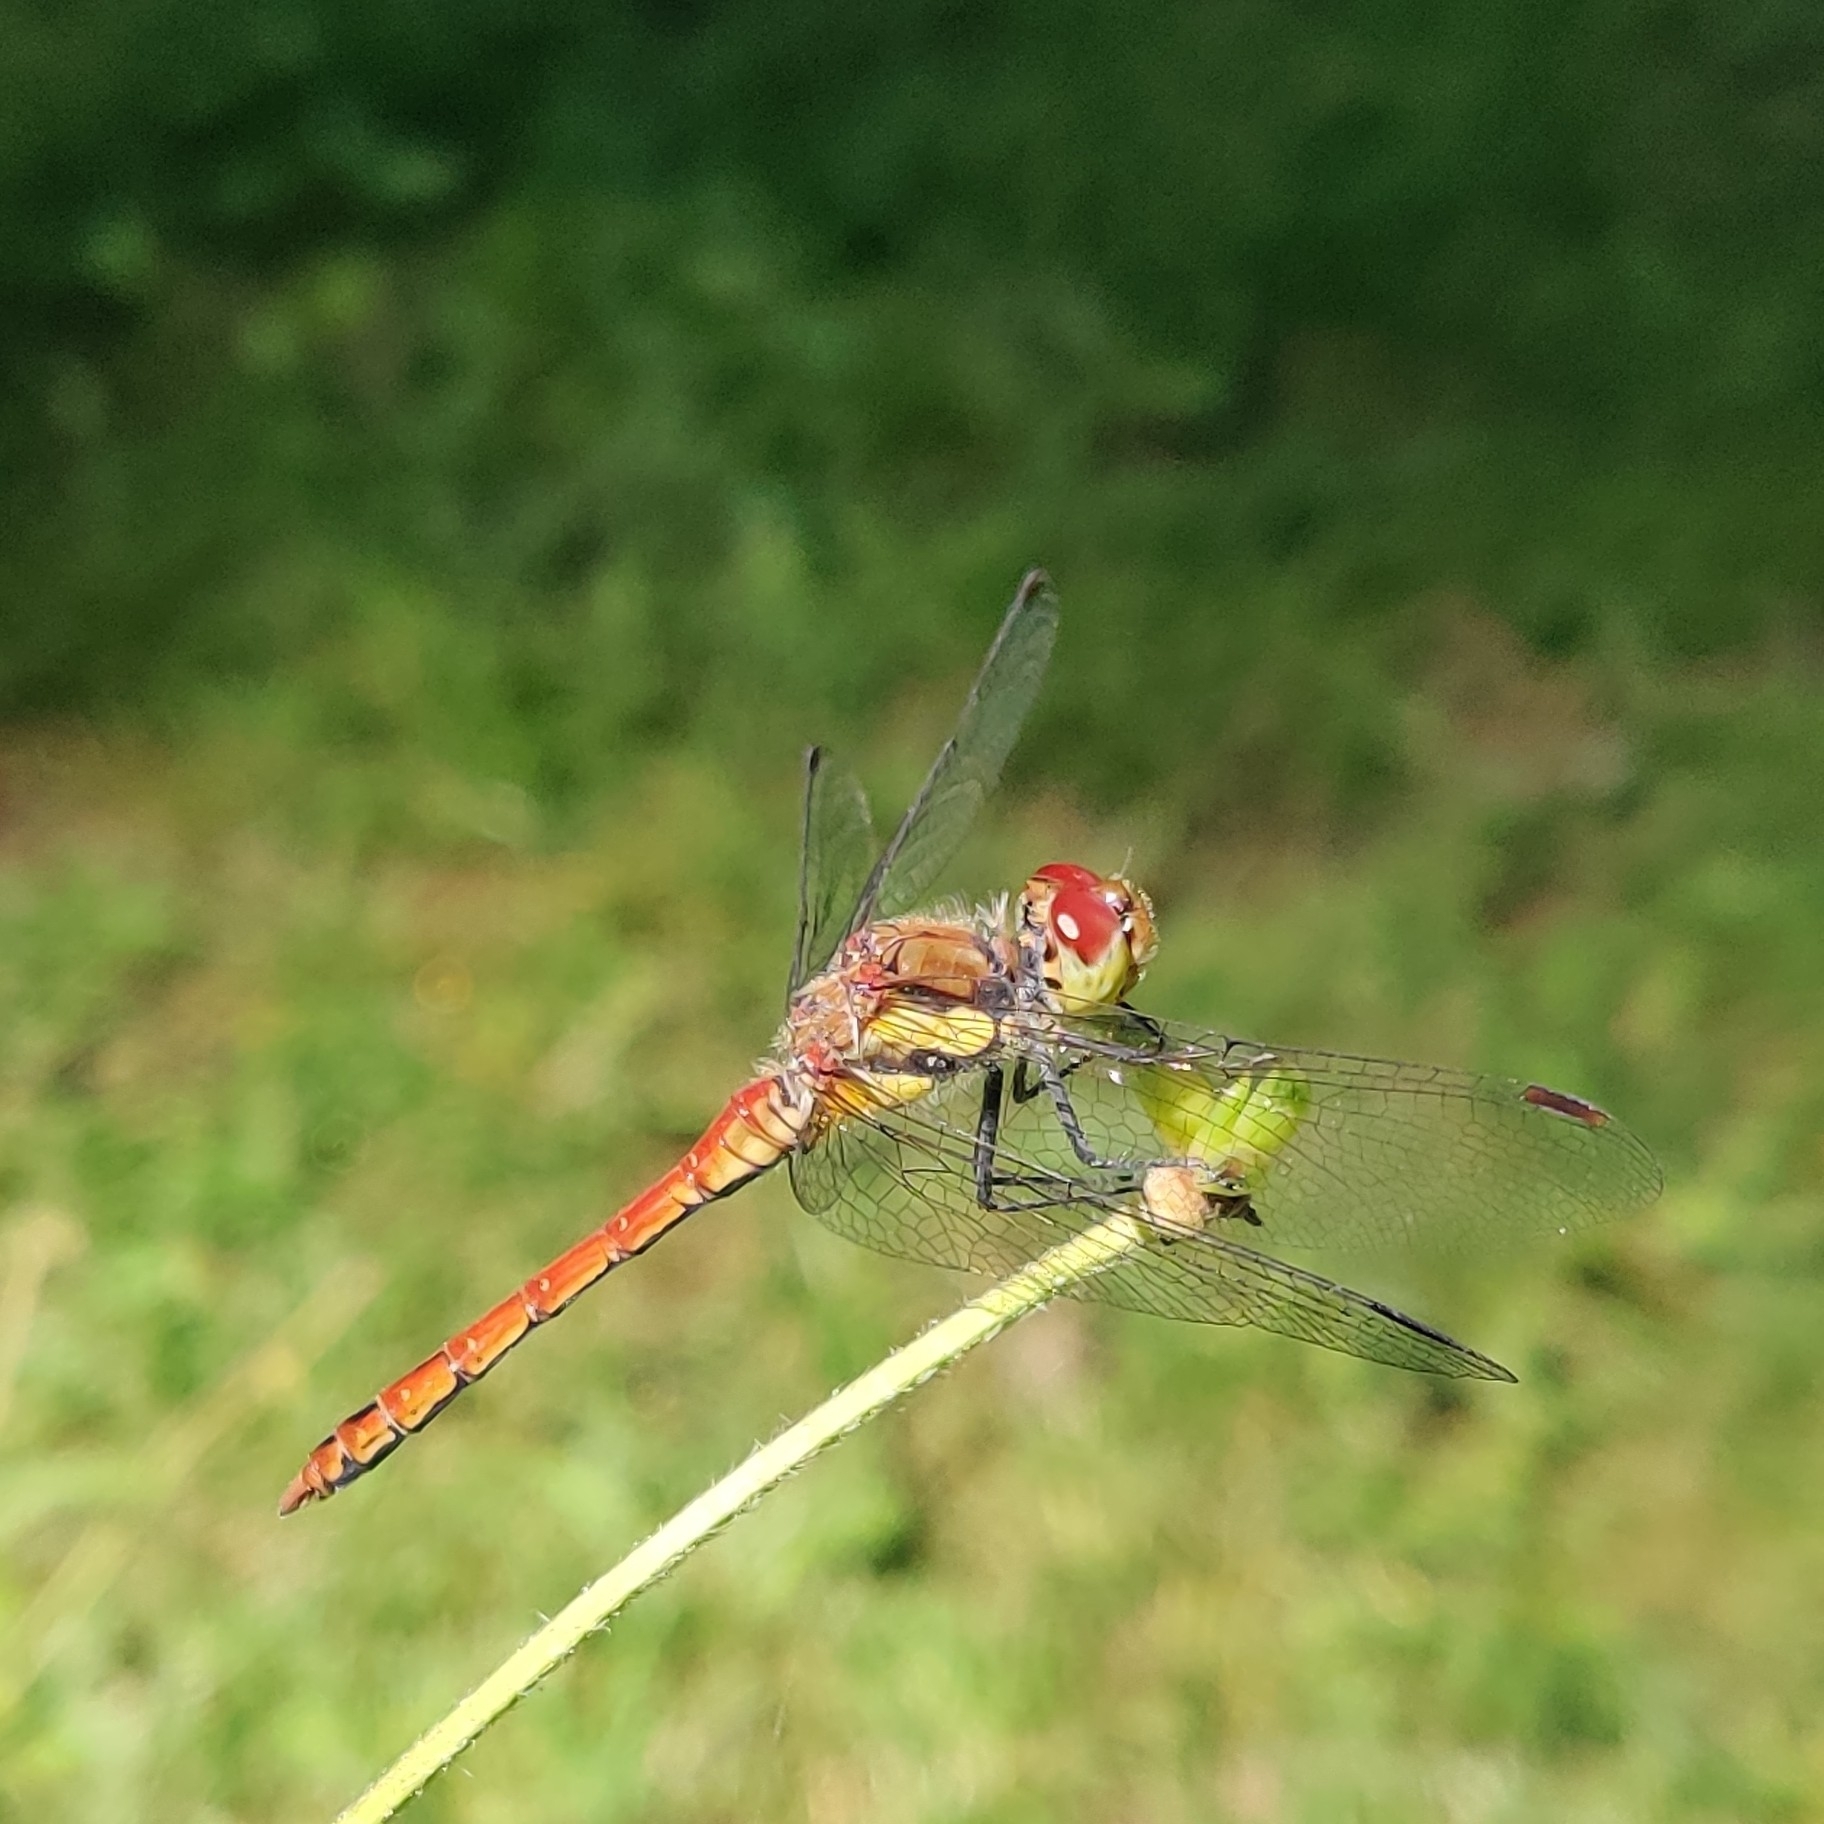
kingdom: Animalia
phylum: Arthropoda
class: Insecta
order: Odonata
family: Libellulidae
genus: Sympetrum
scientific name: Sympetrum striolatum
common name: Common darter
